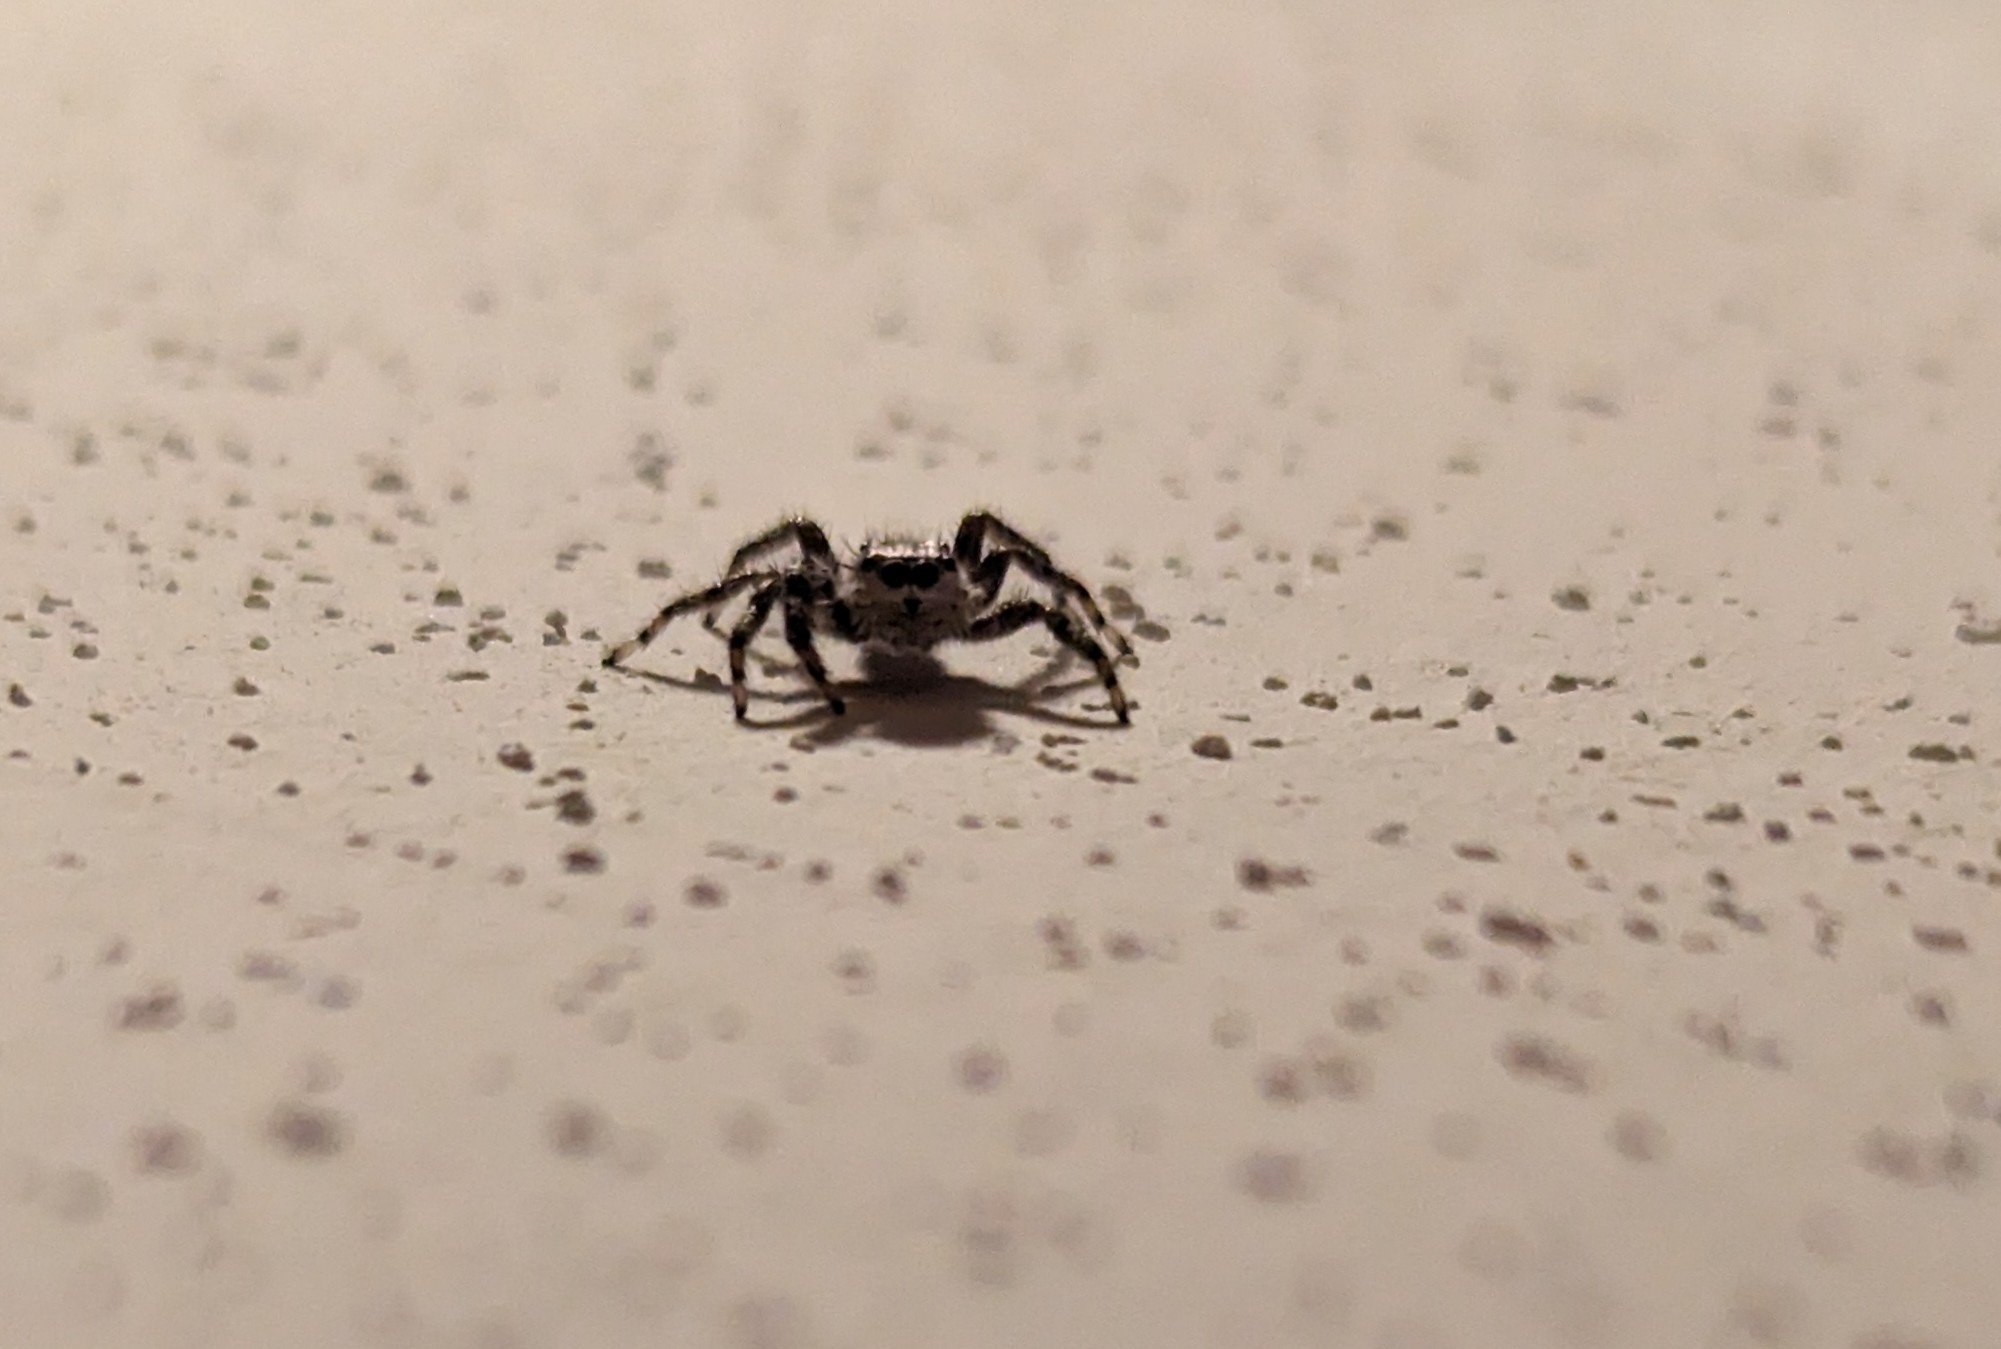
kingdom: Animalia
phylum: Arthropoda
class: Arachnida
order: Araneae
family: Salticidae
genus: Platycryptus
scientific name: Platycryptus undatus
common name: Tan jumping spider
